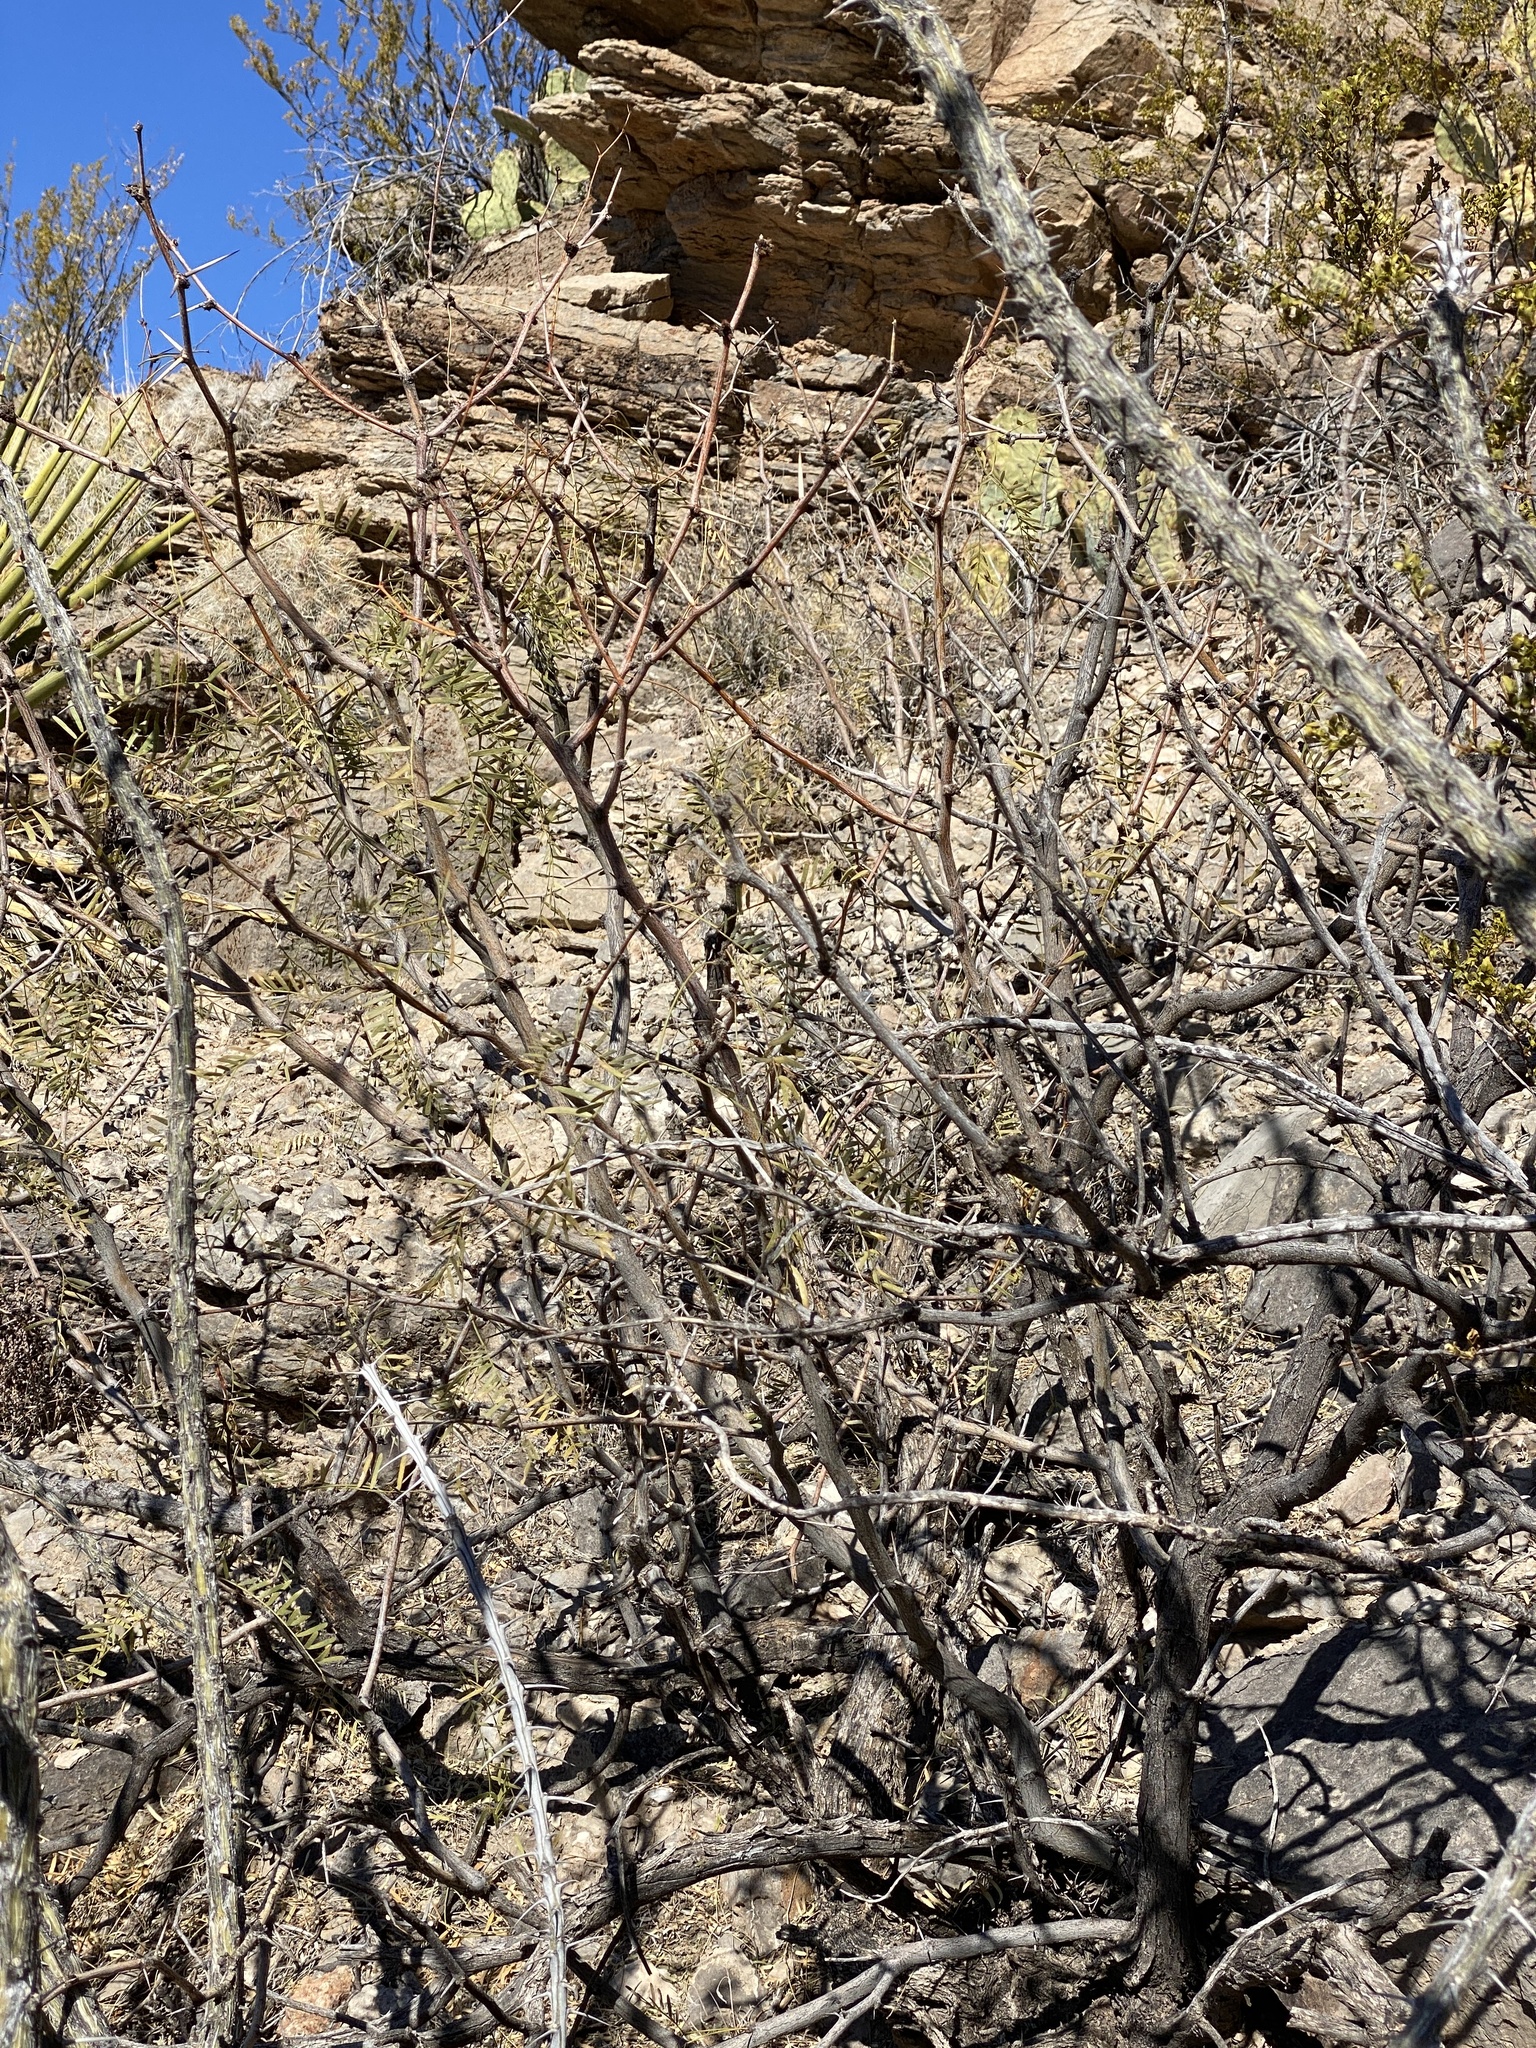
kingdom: Plantae
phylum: Tracheophyta
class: Magnoliopsida
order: Fabales
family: Fabaceae
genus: Prosopis
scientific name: Prosopis glandulosa
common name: Honey mesquite
